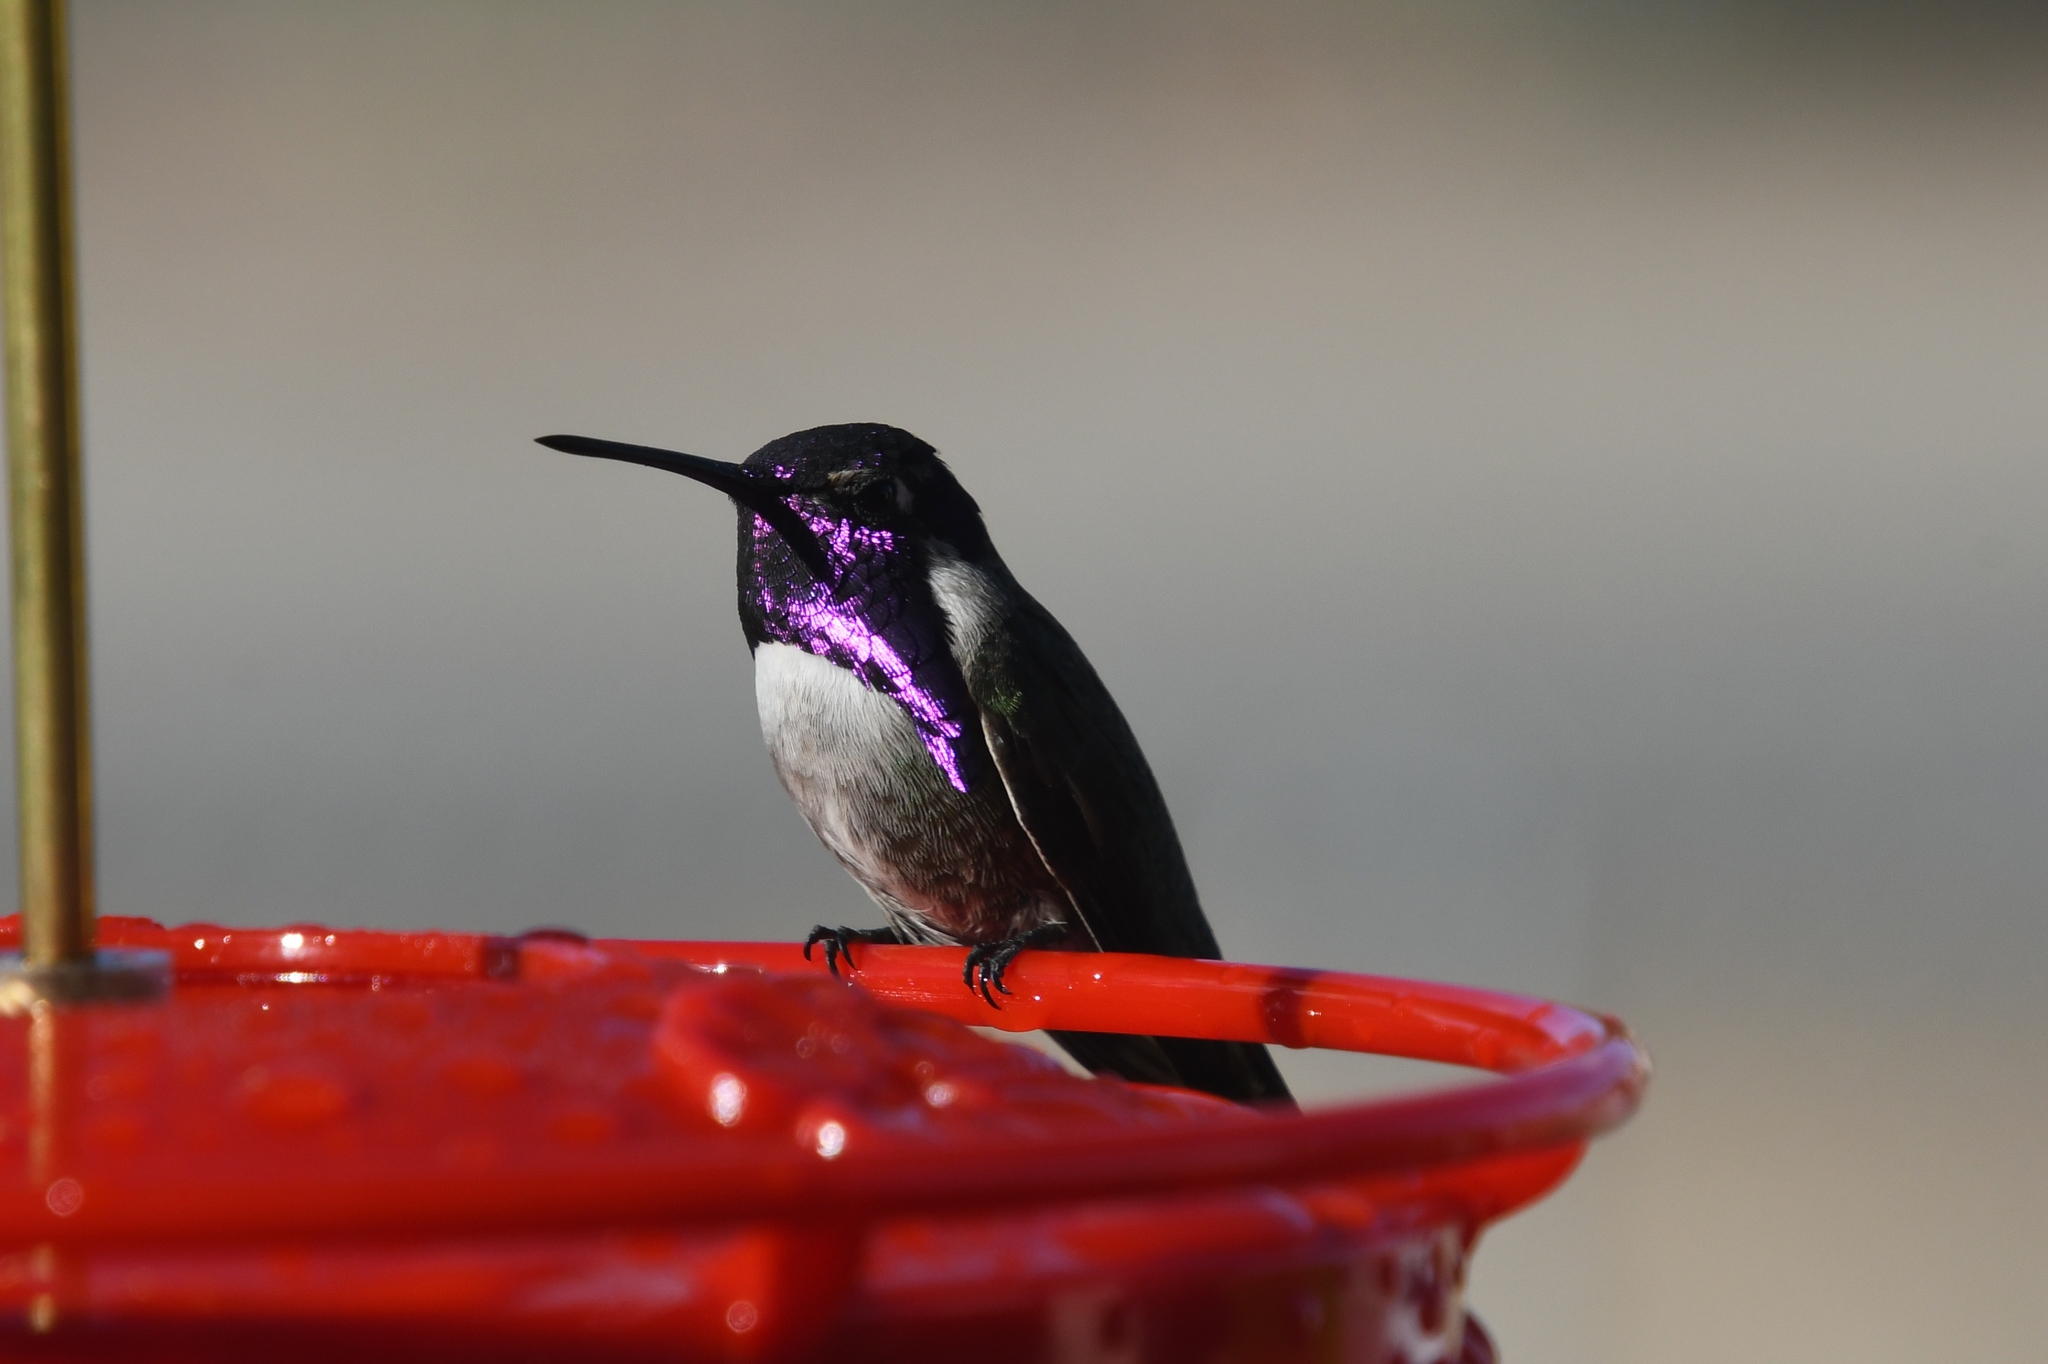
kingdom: Animalia
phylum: Chordata
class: Aves
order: Apodiformes
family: Trochilidae
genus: Calypte
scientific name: Calypte costae
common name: Costa's hummingbird
